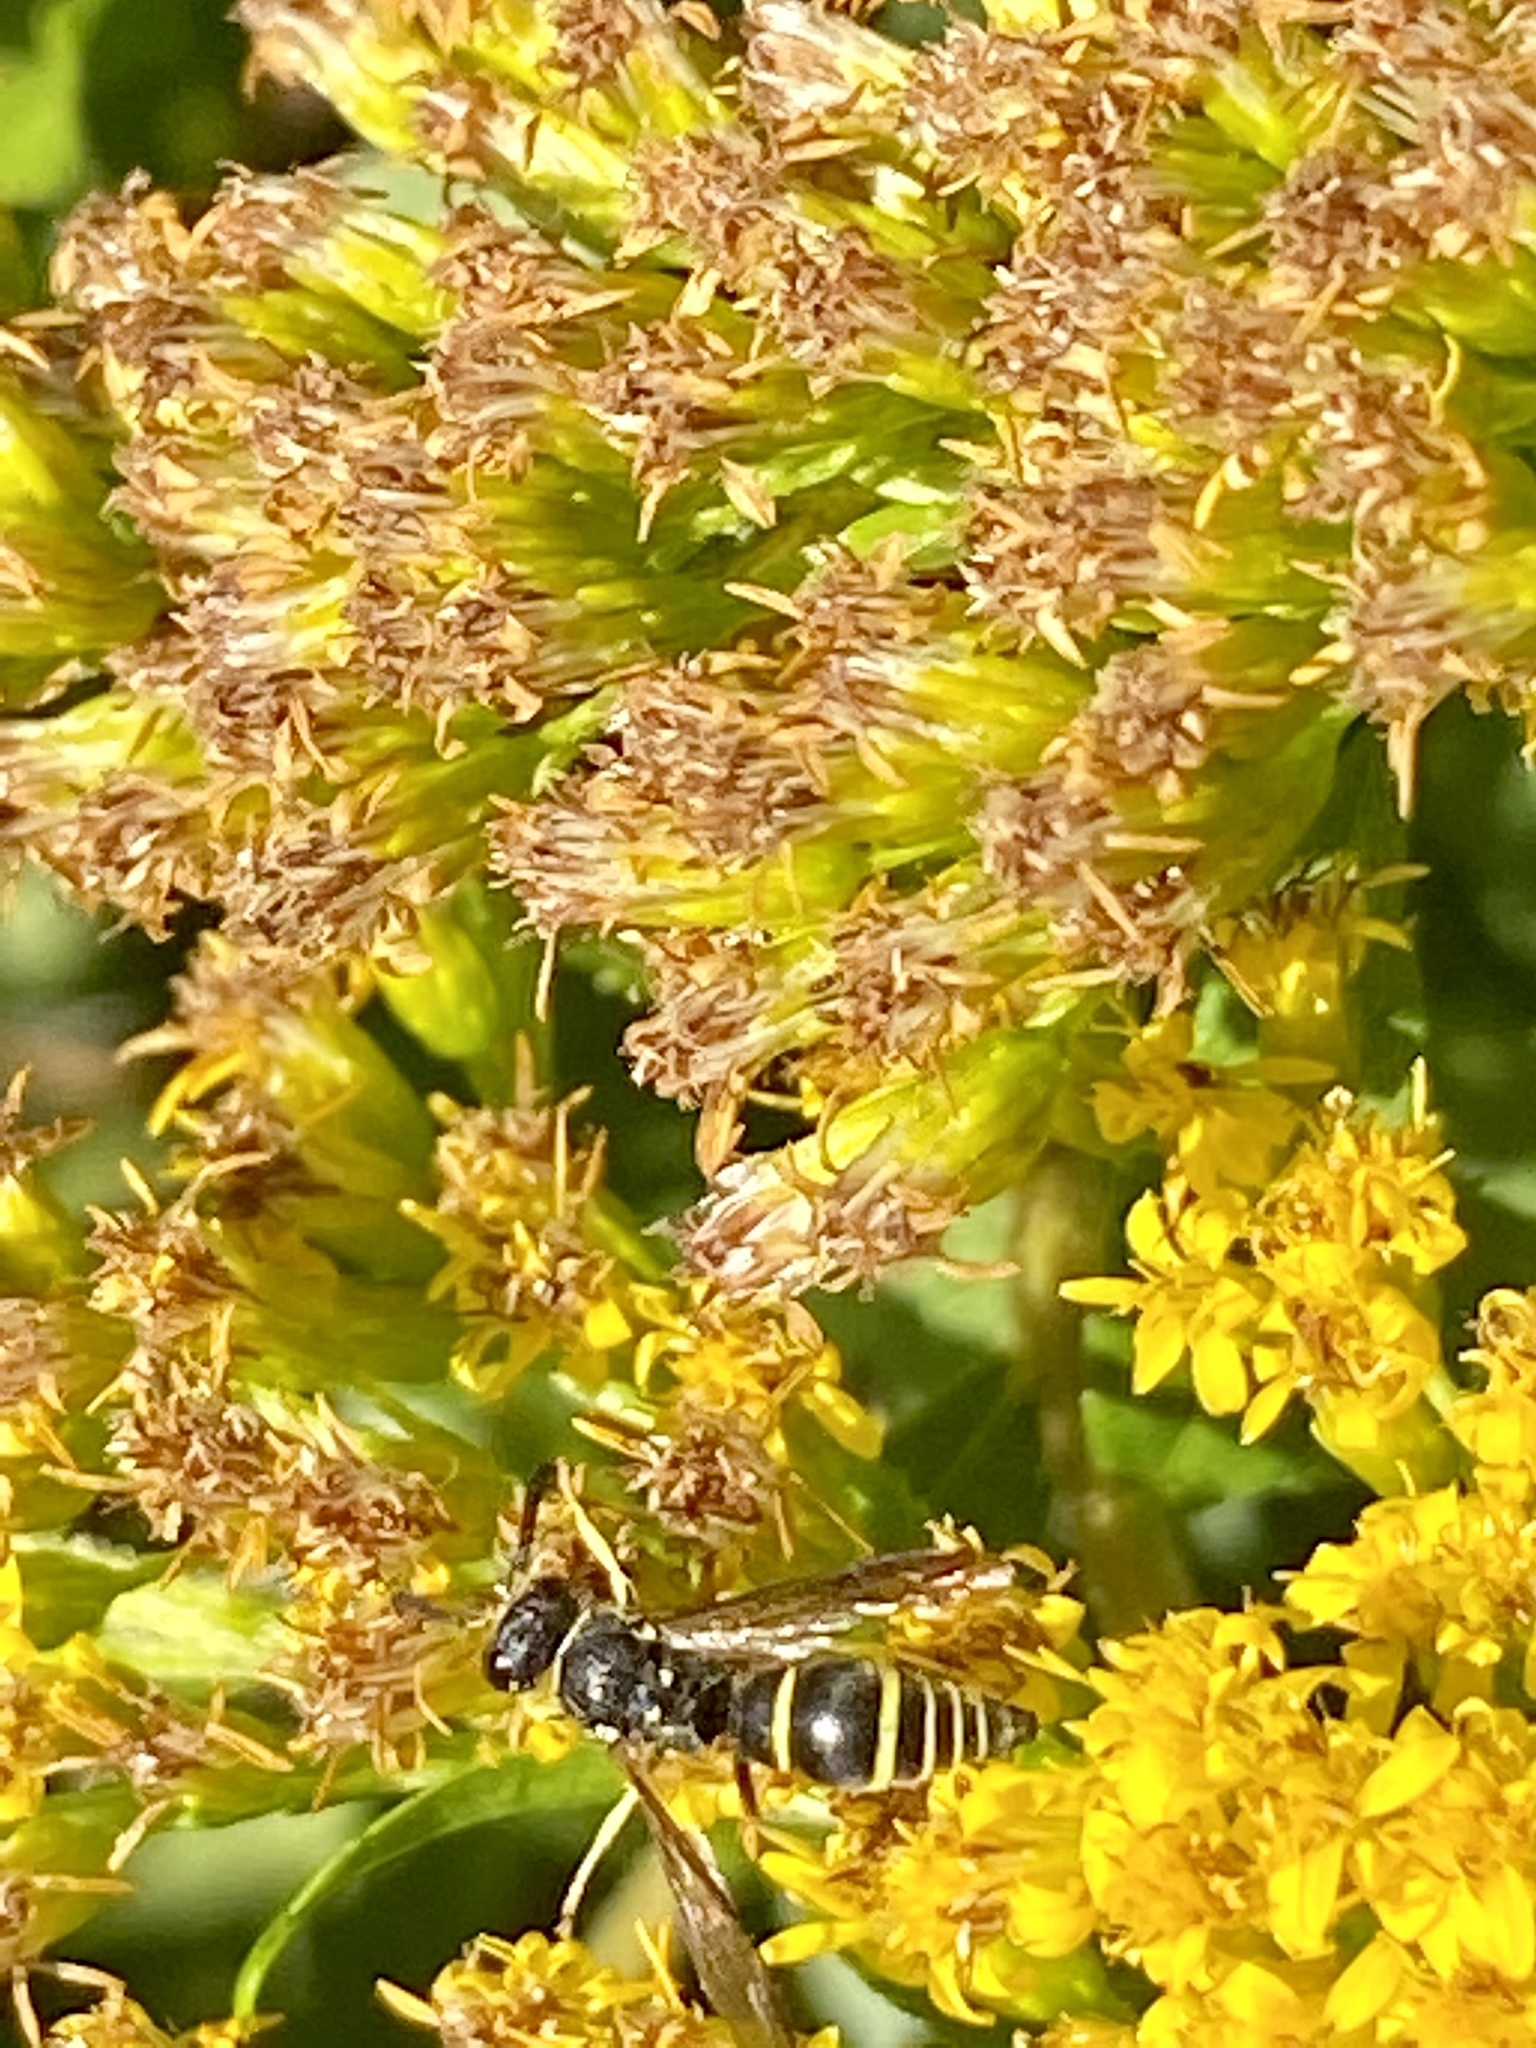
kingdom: Animalia
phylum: Arthropoda
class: Insecta
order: Hymenoptera
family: Vespidae
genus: Ancistrocerus
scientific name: Ancistrocerus
